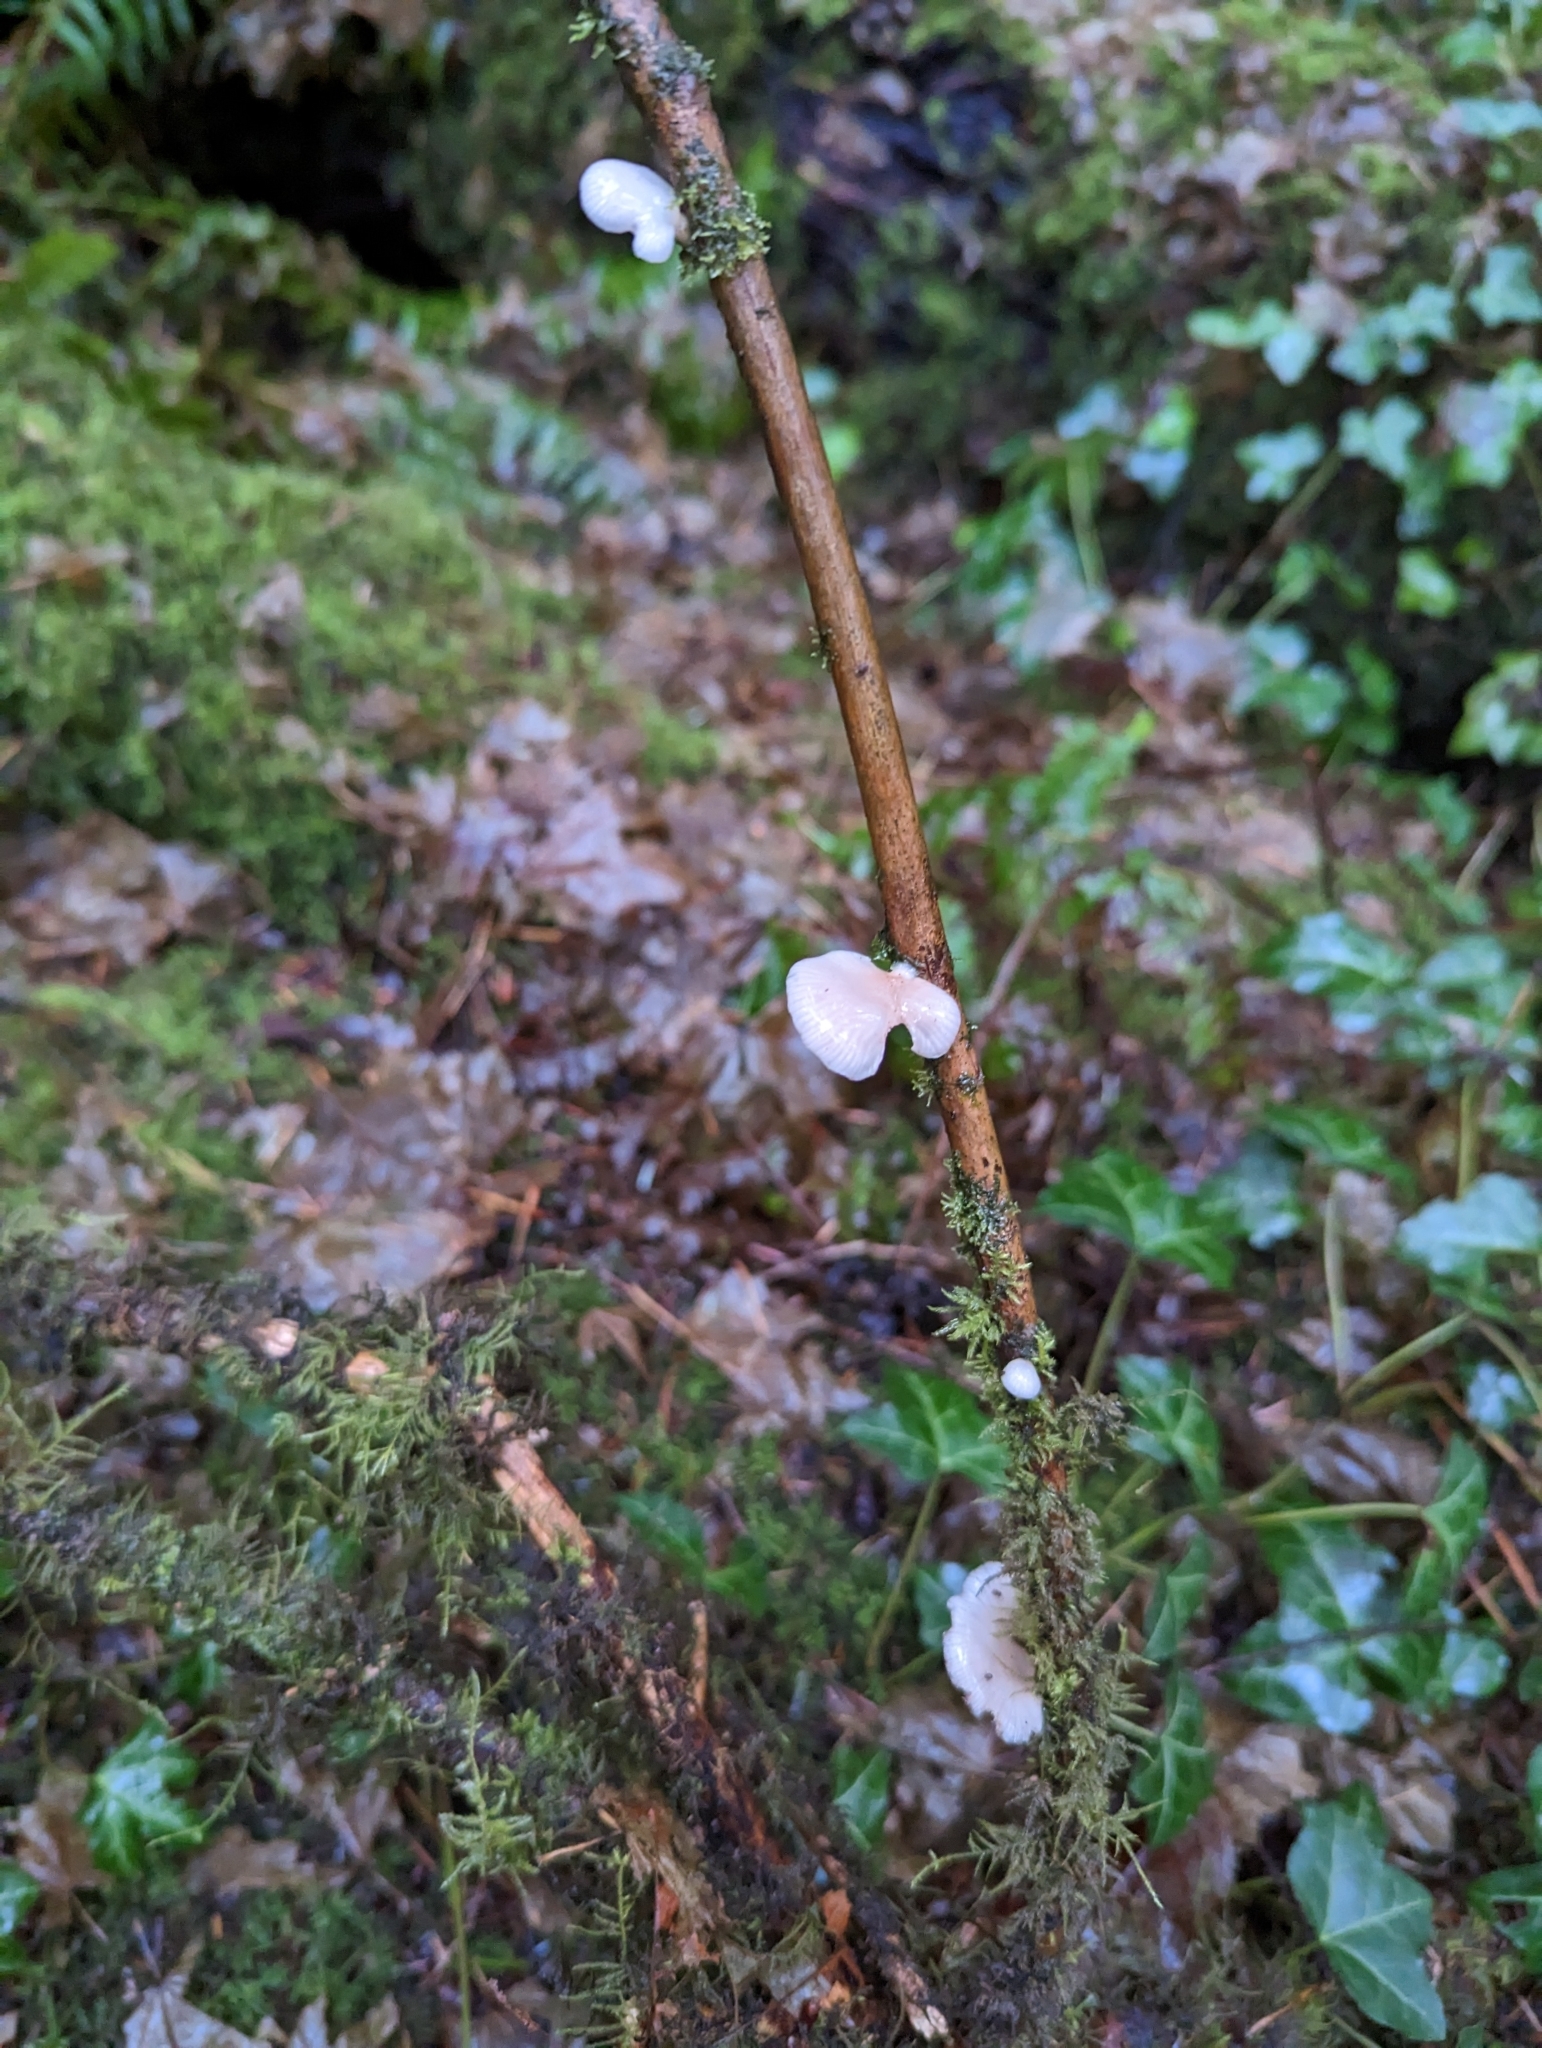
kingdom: Fungi
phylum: Basidiomycota
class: Agaricomycetes
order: Agaricales
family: Mycenaceae
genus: Panellus
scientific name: Panellus longinquus
